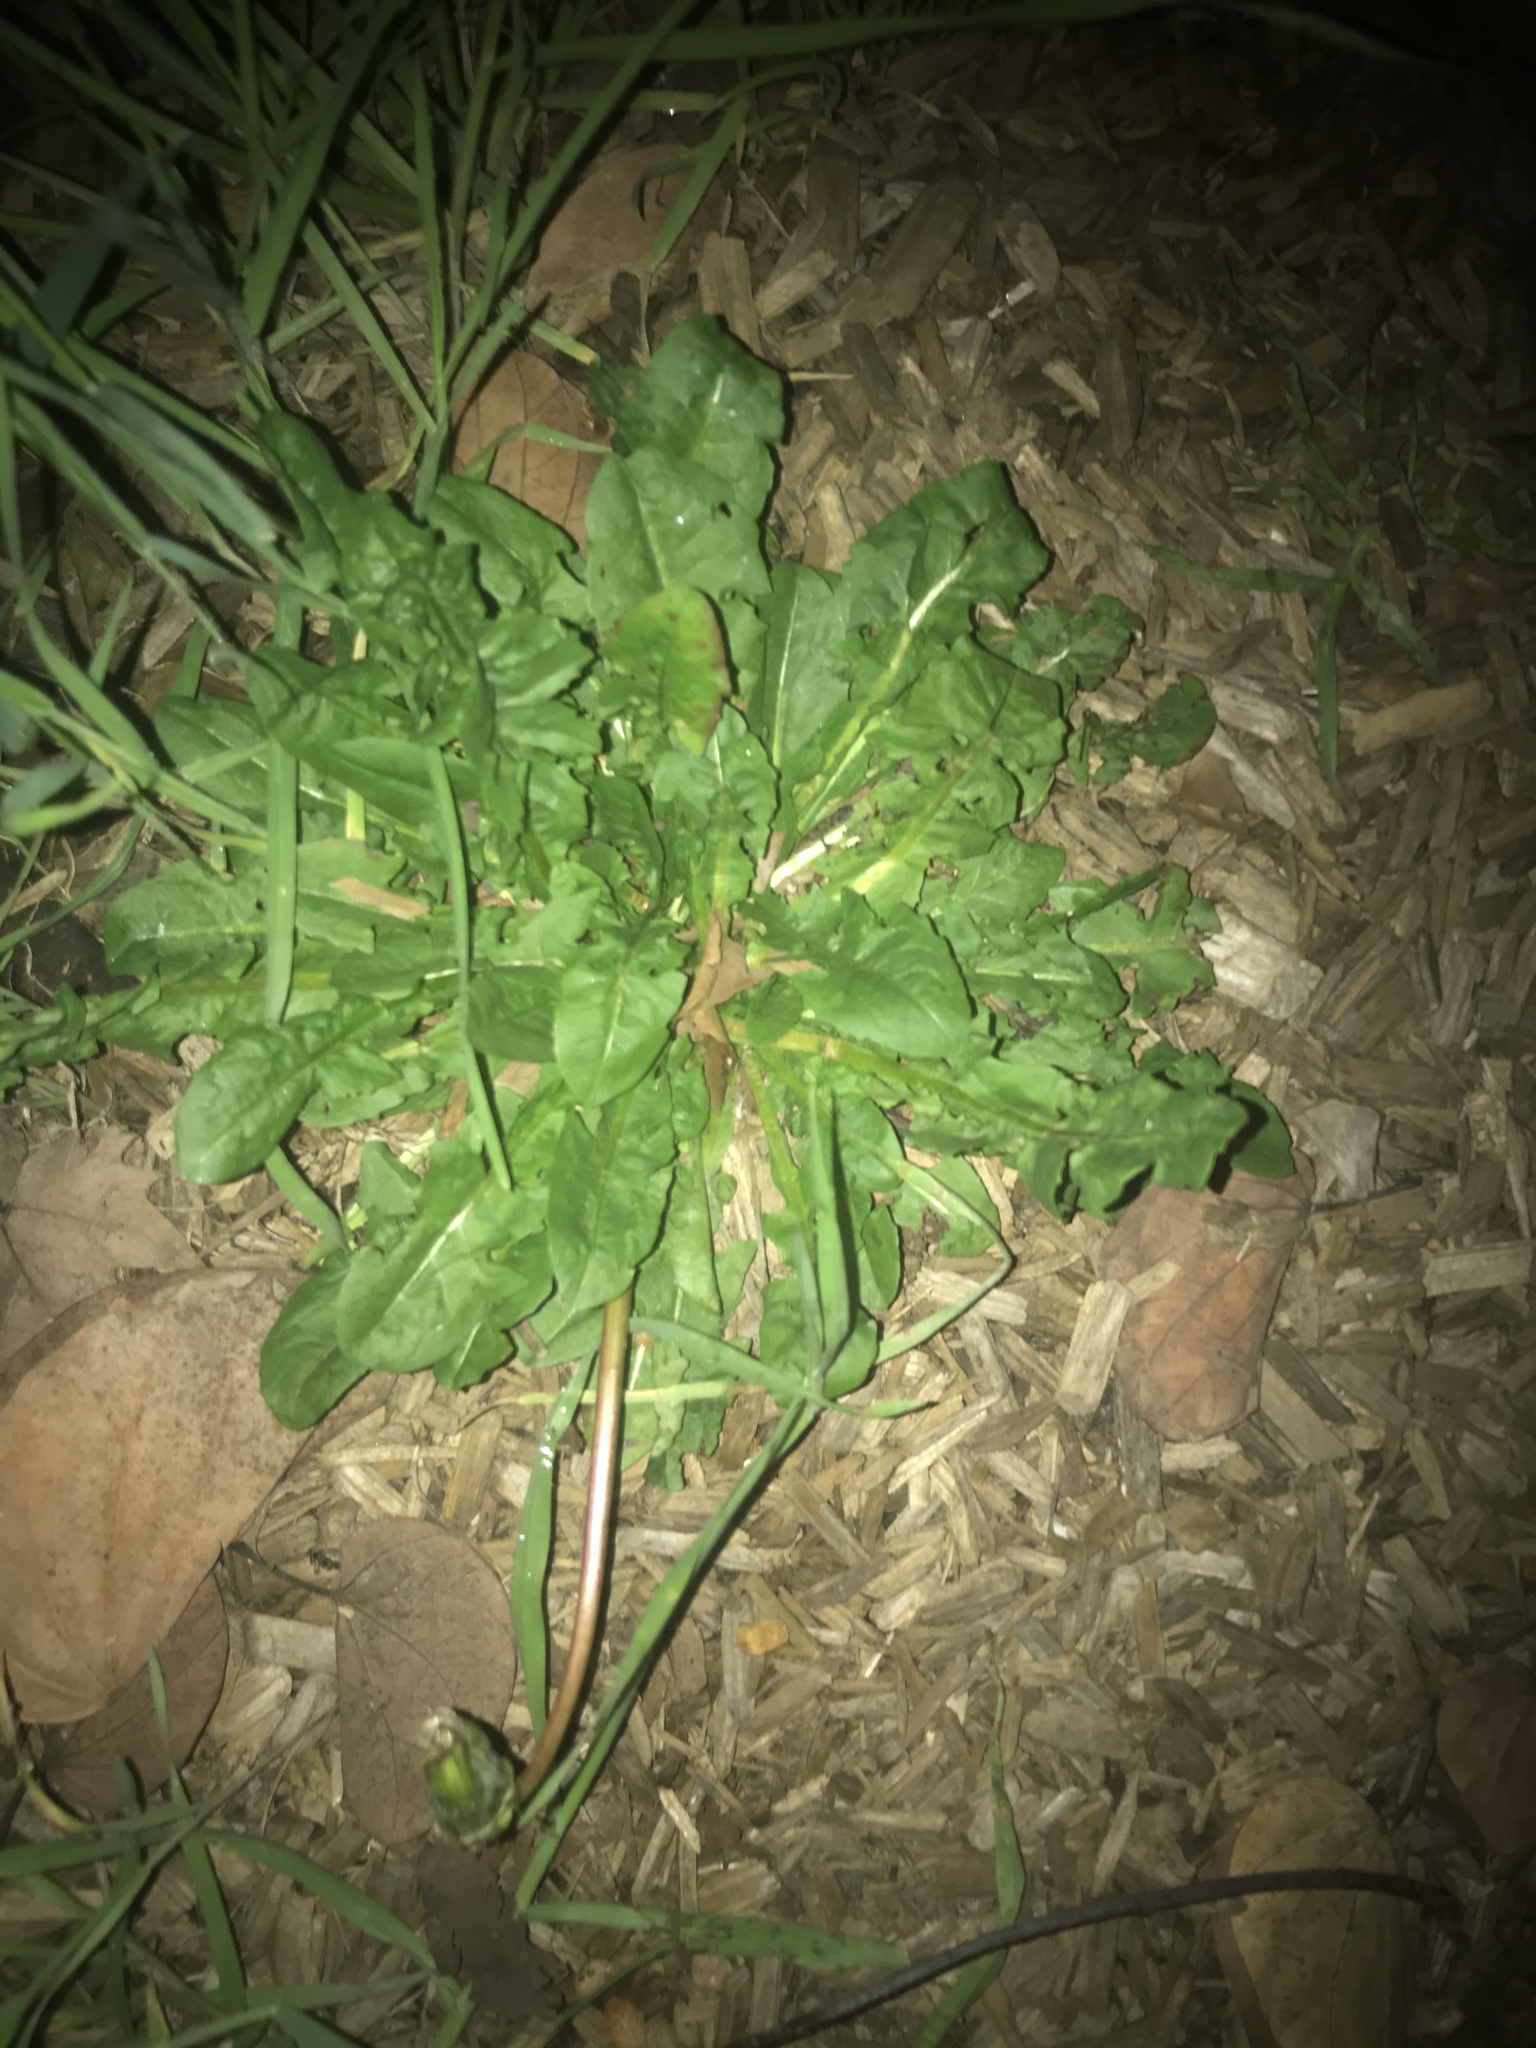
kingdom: Plantae
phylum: Tracheophyta
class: Magnoliopsida
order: Asterales
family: Asteraceae
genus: Taraxacum
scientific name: Taraxacum officinale
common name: Common dandelion
